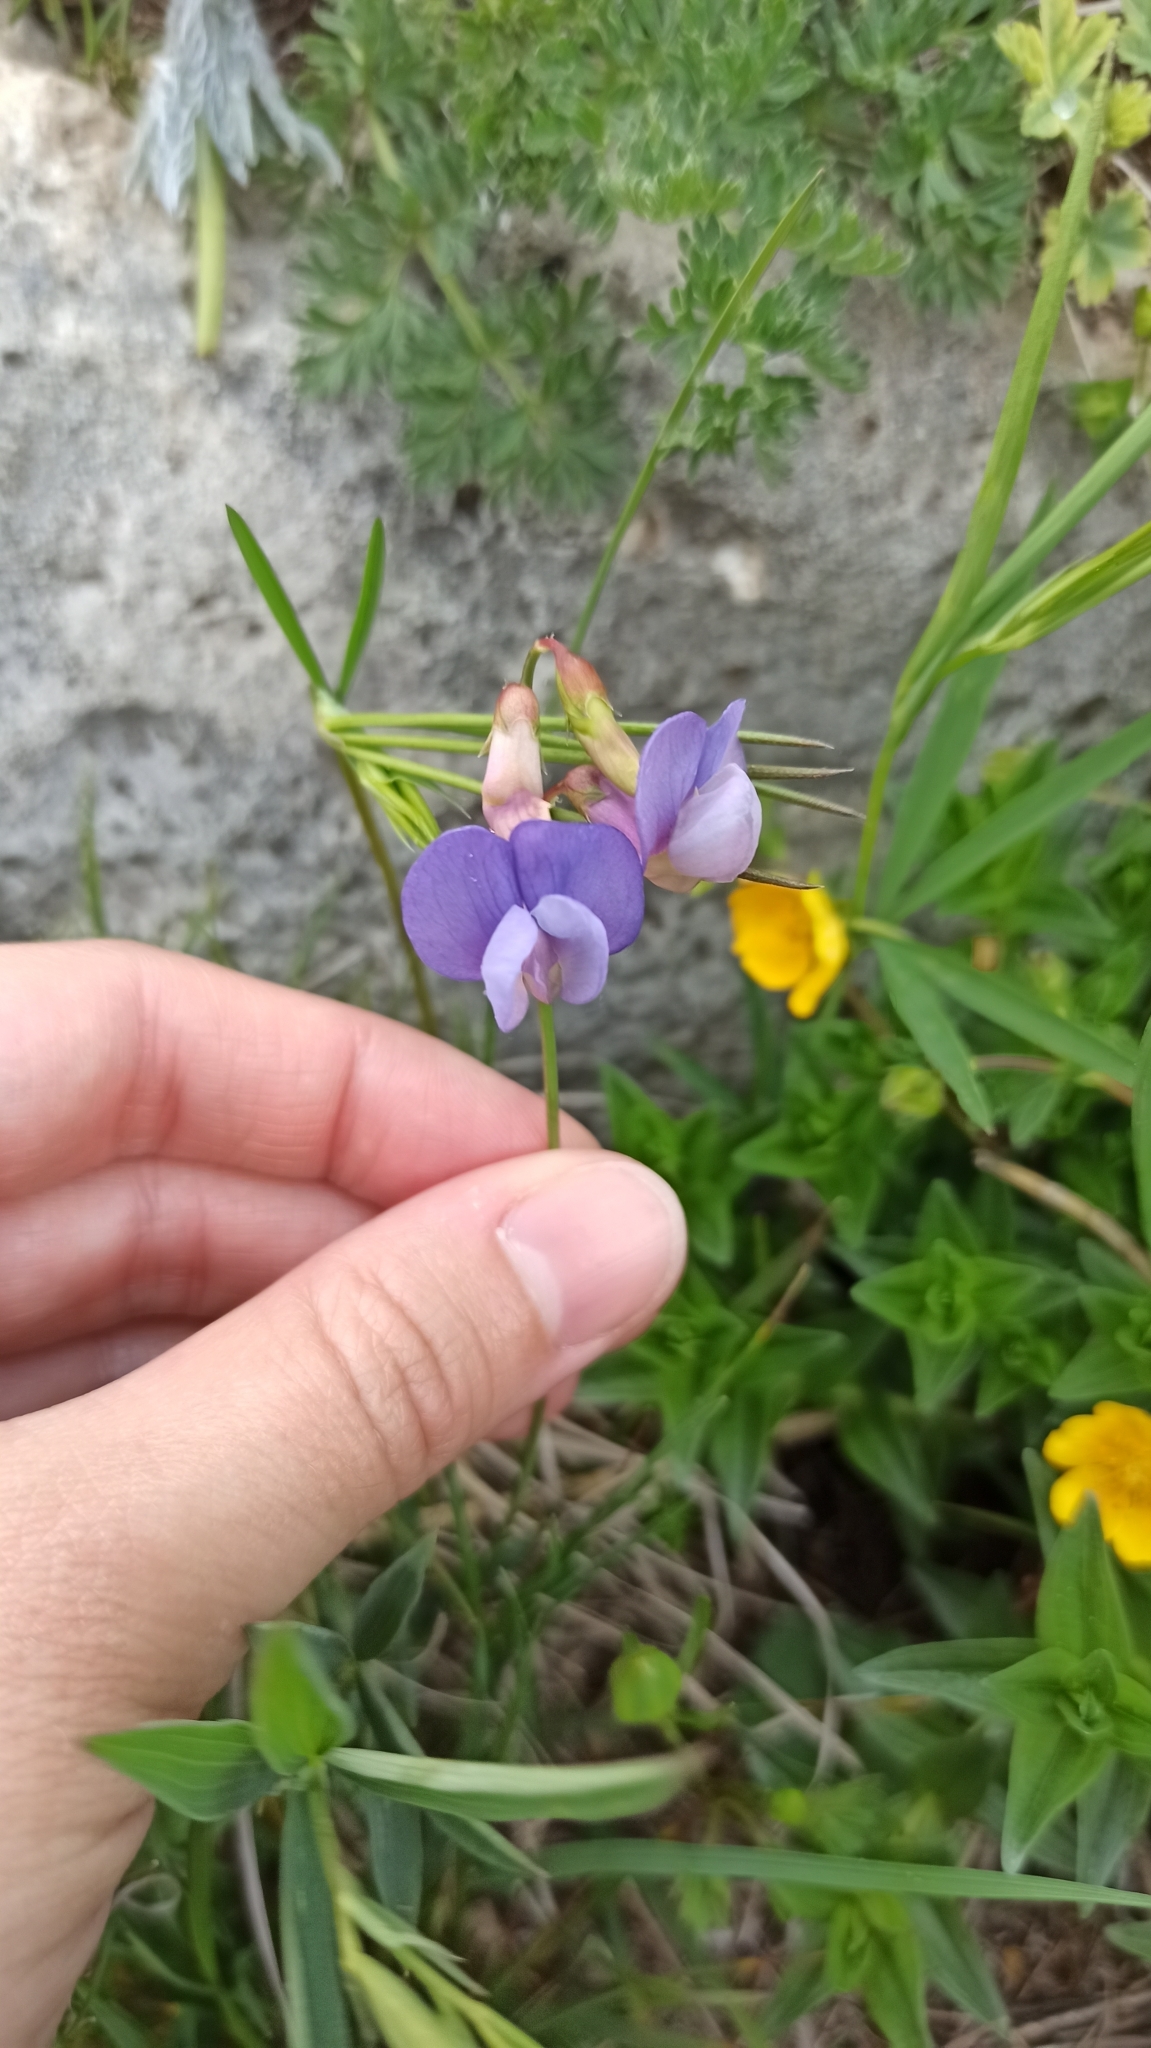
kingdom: Plantae
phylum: Tracheophyta
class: Magnoliopsida
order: Fabales
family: Fabaceae
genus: Lathyrus
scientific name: Lathyrus laxiflorus
